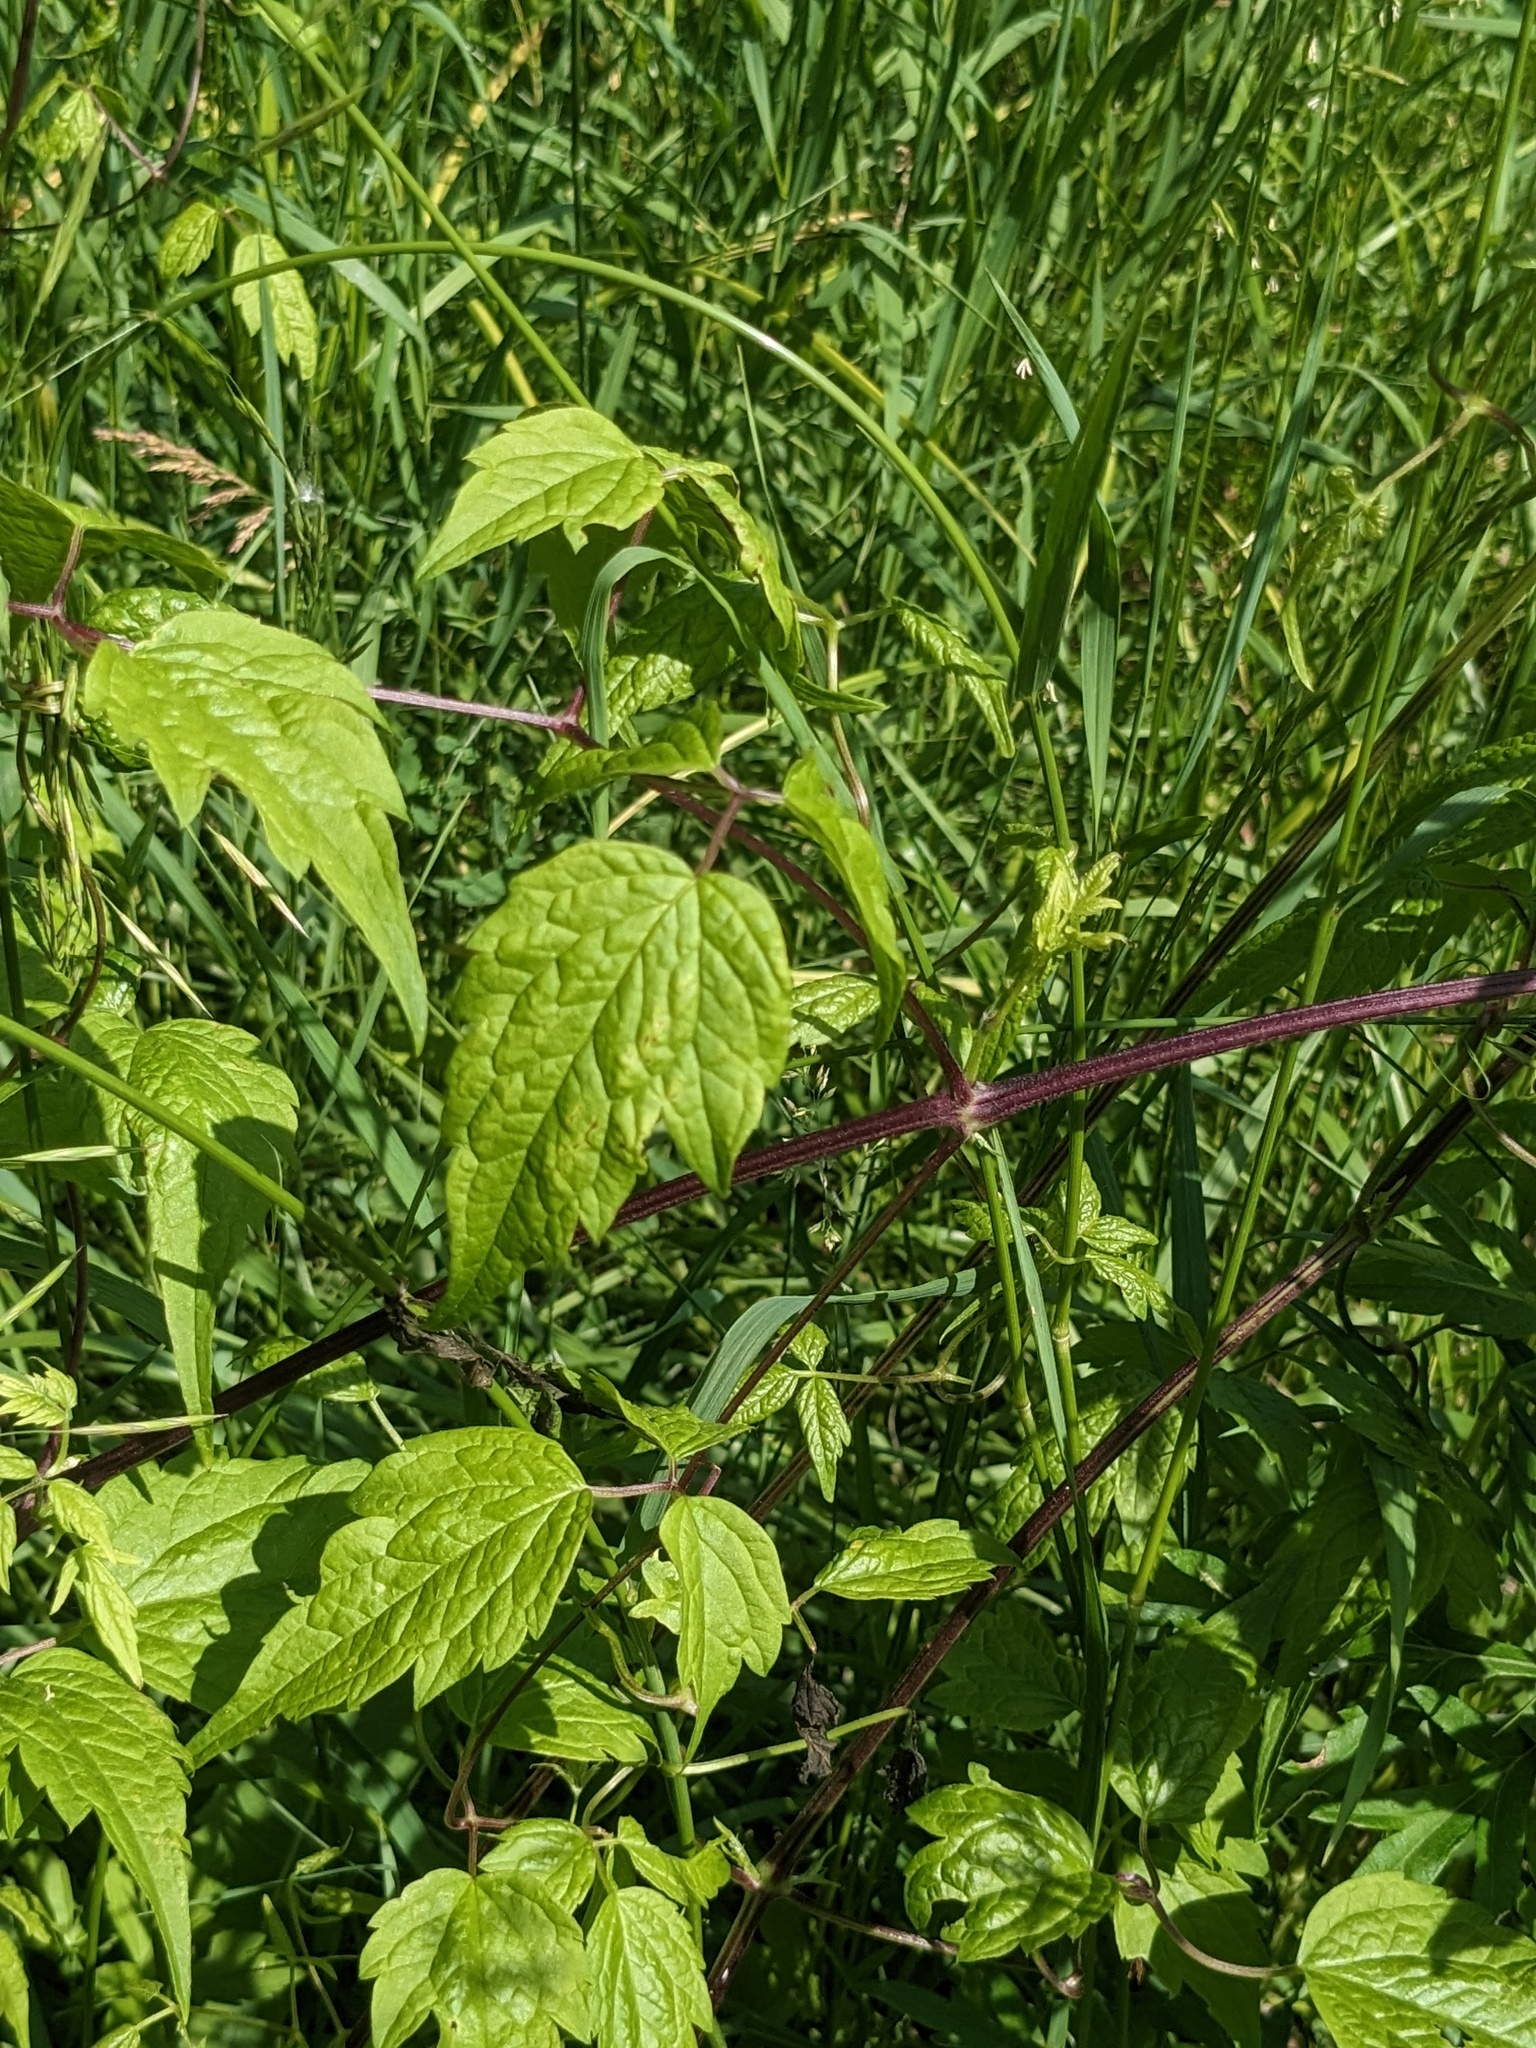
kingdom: Plantae
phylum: Tracheophyta
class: Magnoliopsida
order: Ranunculales
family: Ranunculaceae
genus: Clematis
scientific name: Clematis brevicaudata
